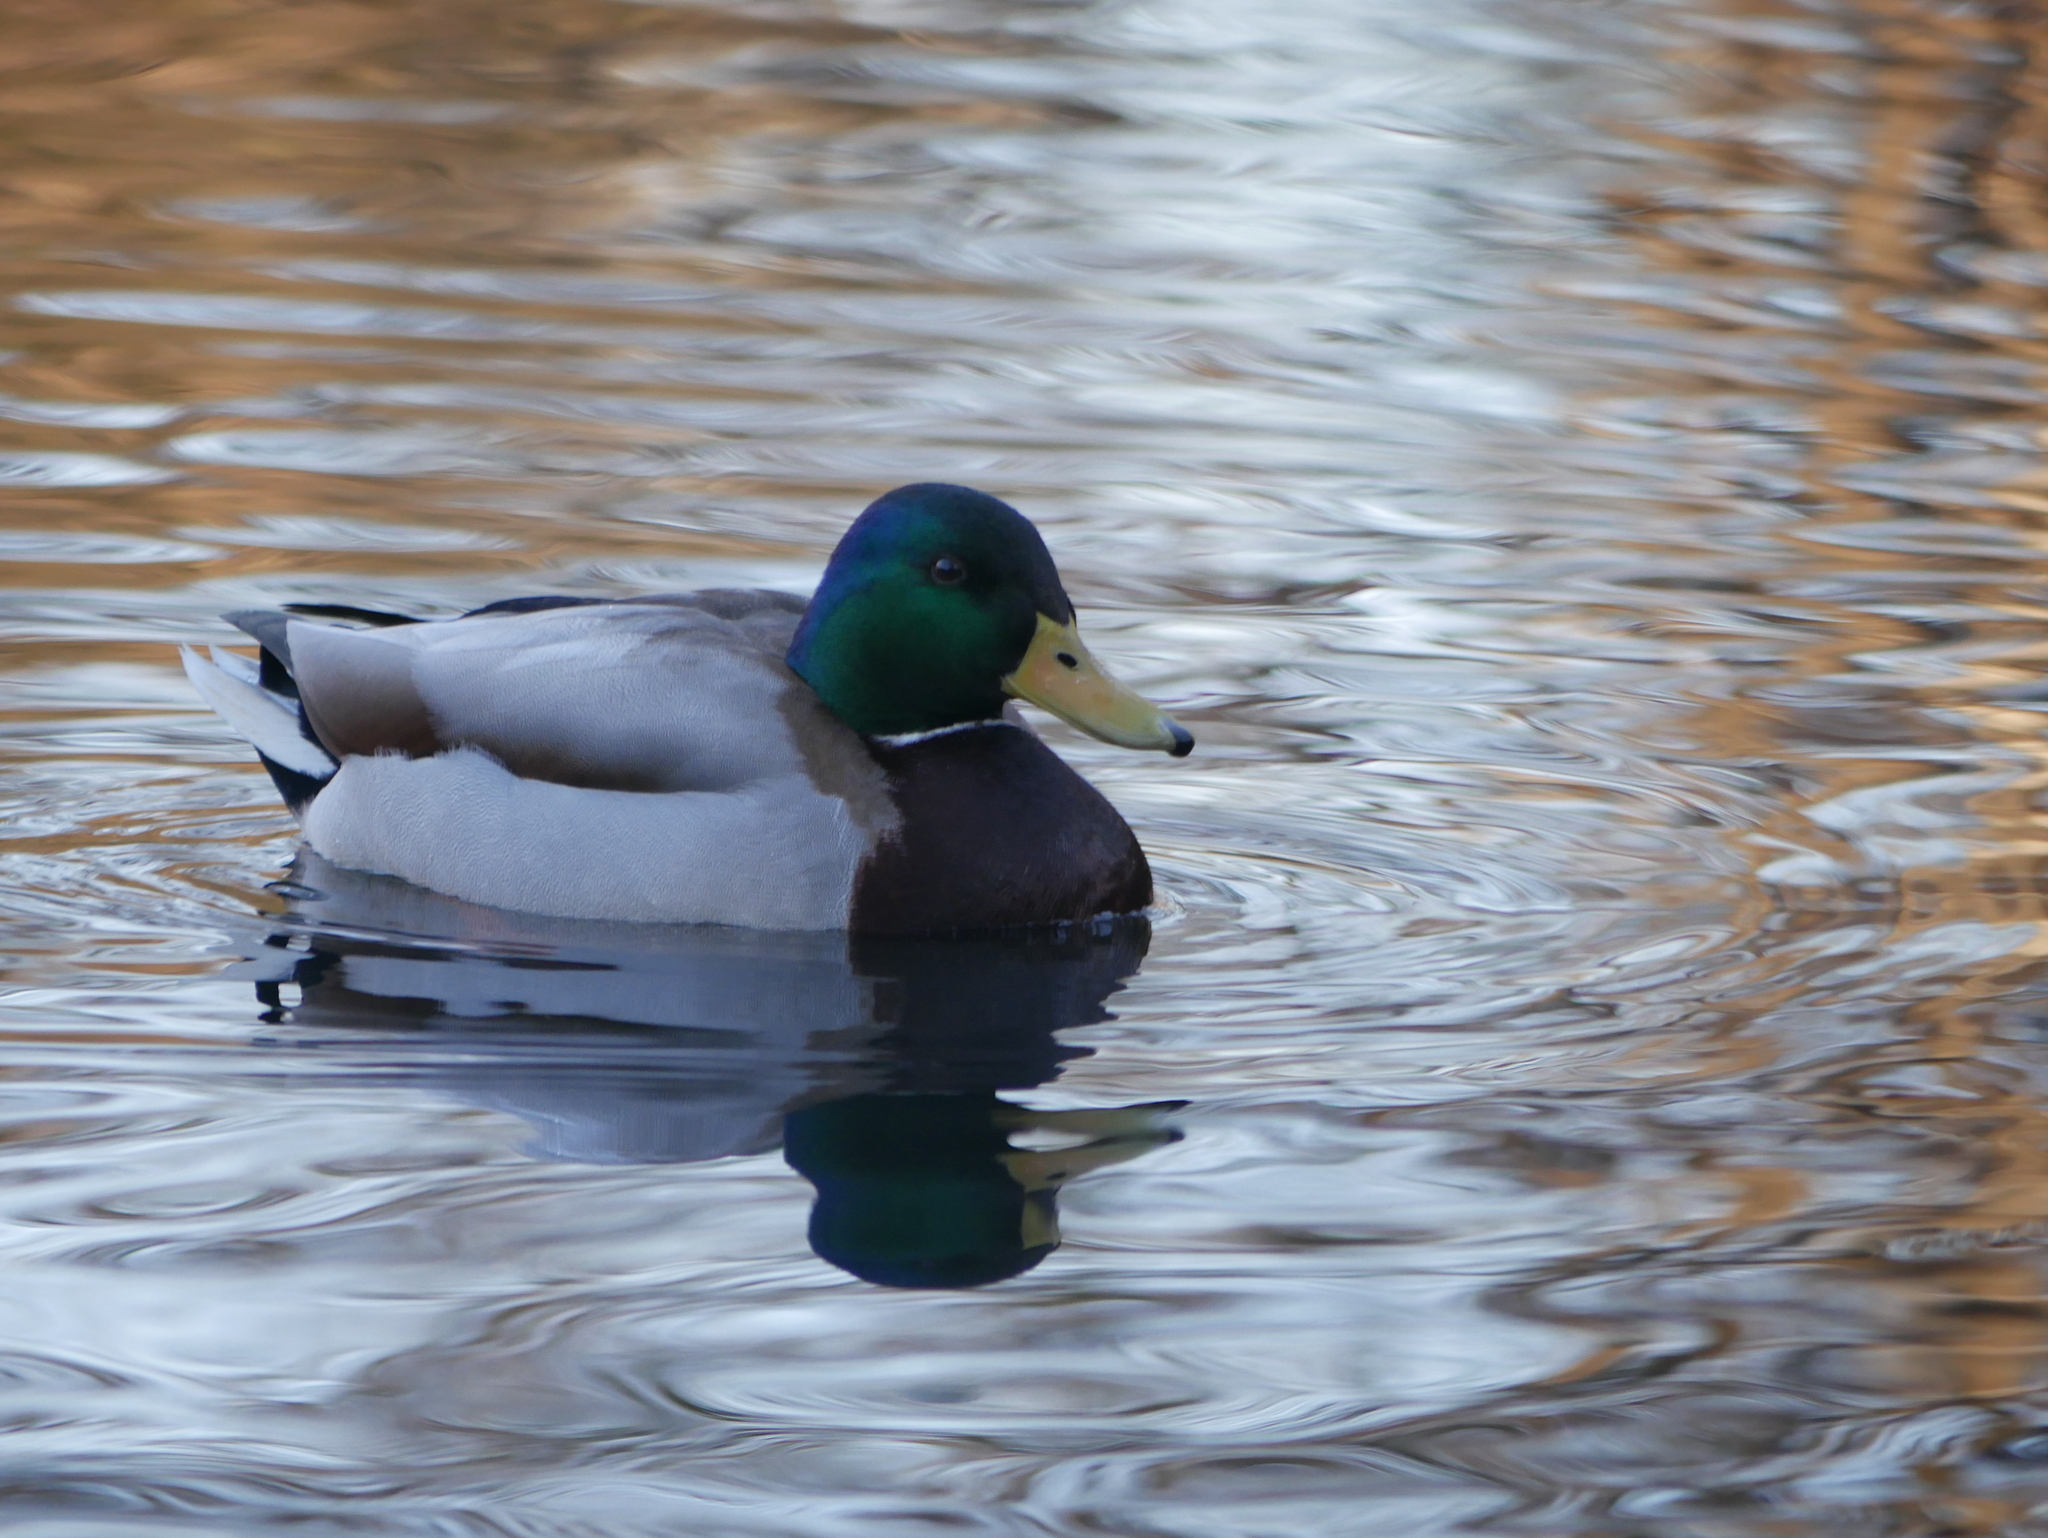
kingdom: Animalia
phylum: Chordata
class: Aves
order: Anseriformes
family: Anatidae
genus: Anas
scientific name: Anas platyrhynchos
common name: Mallard
